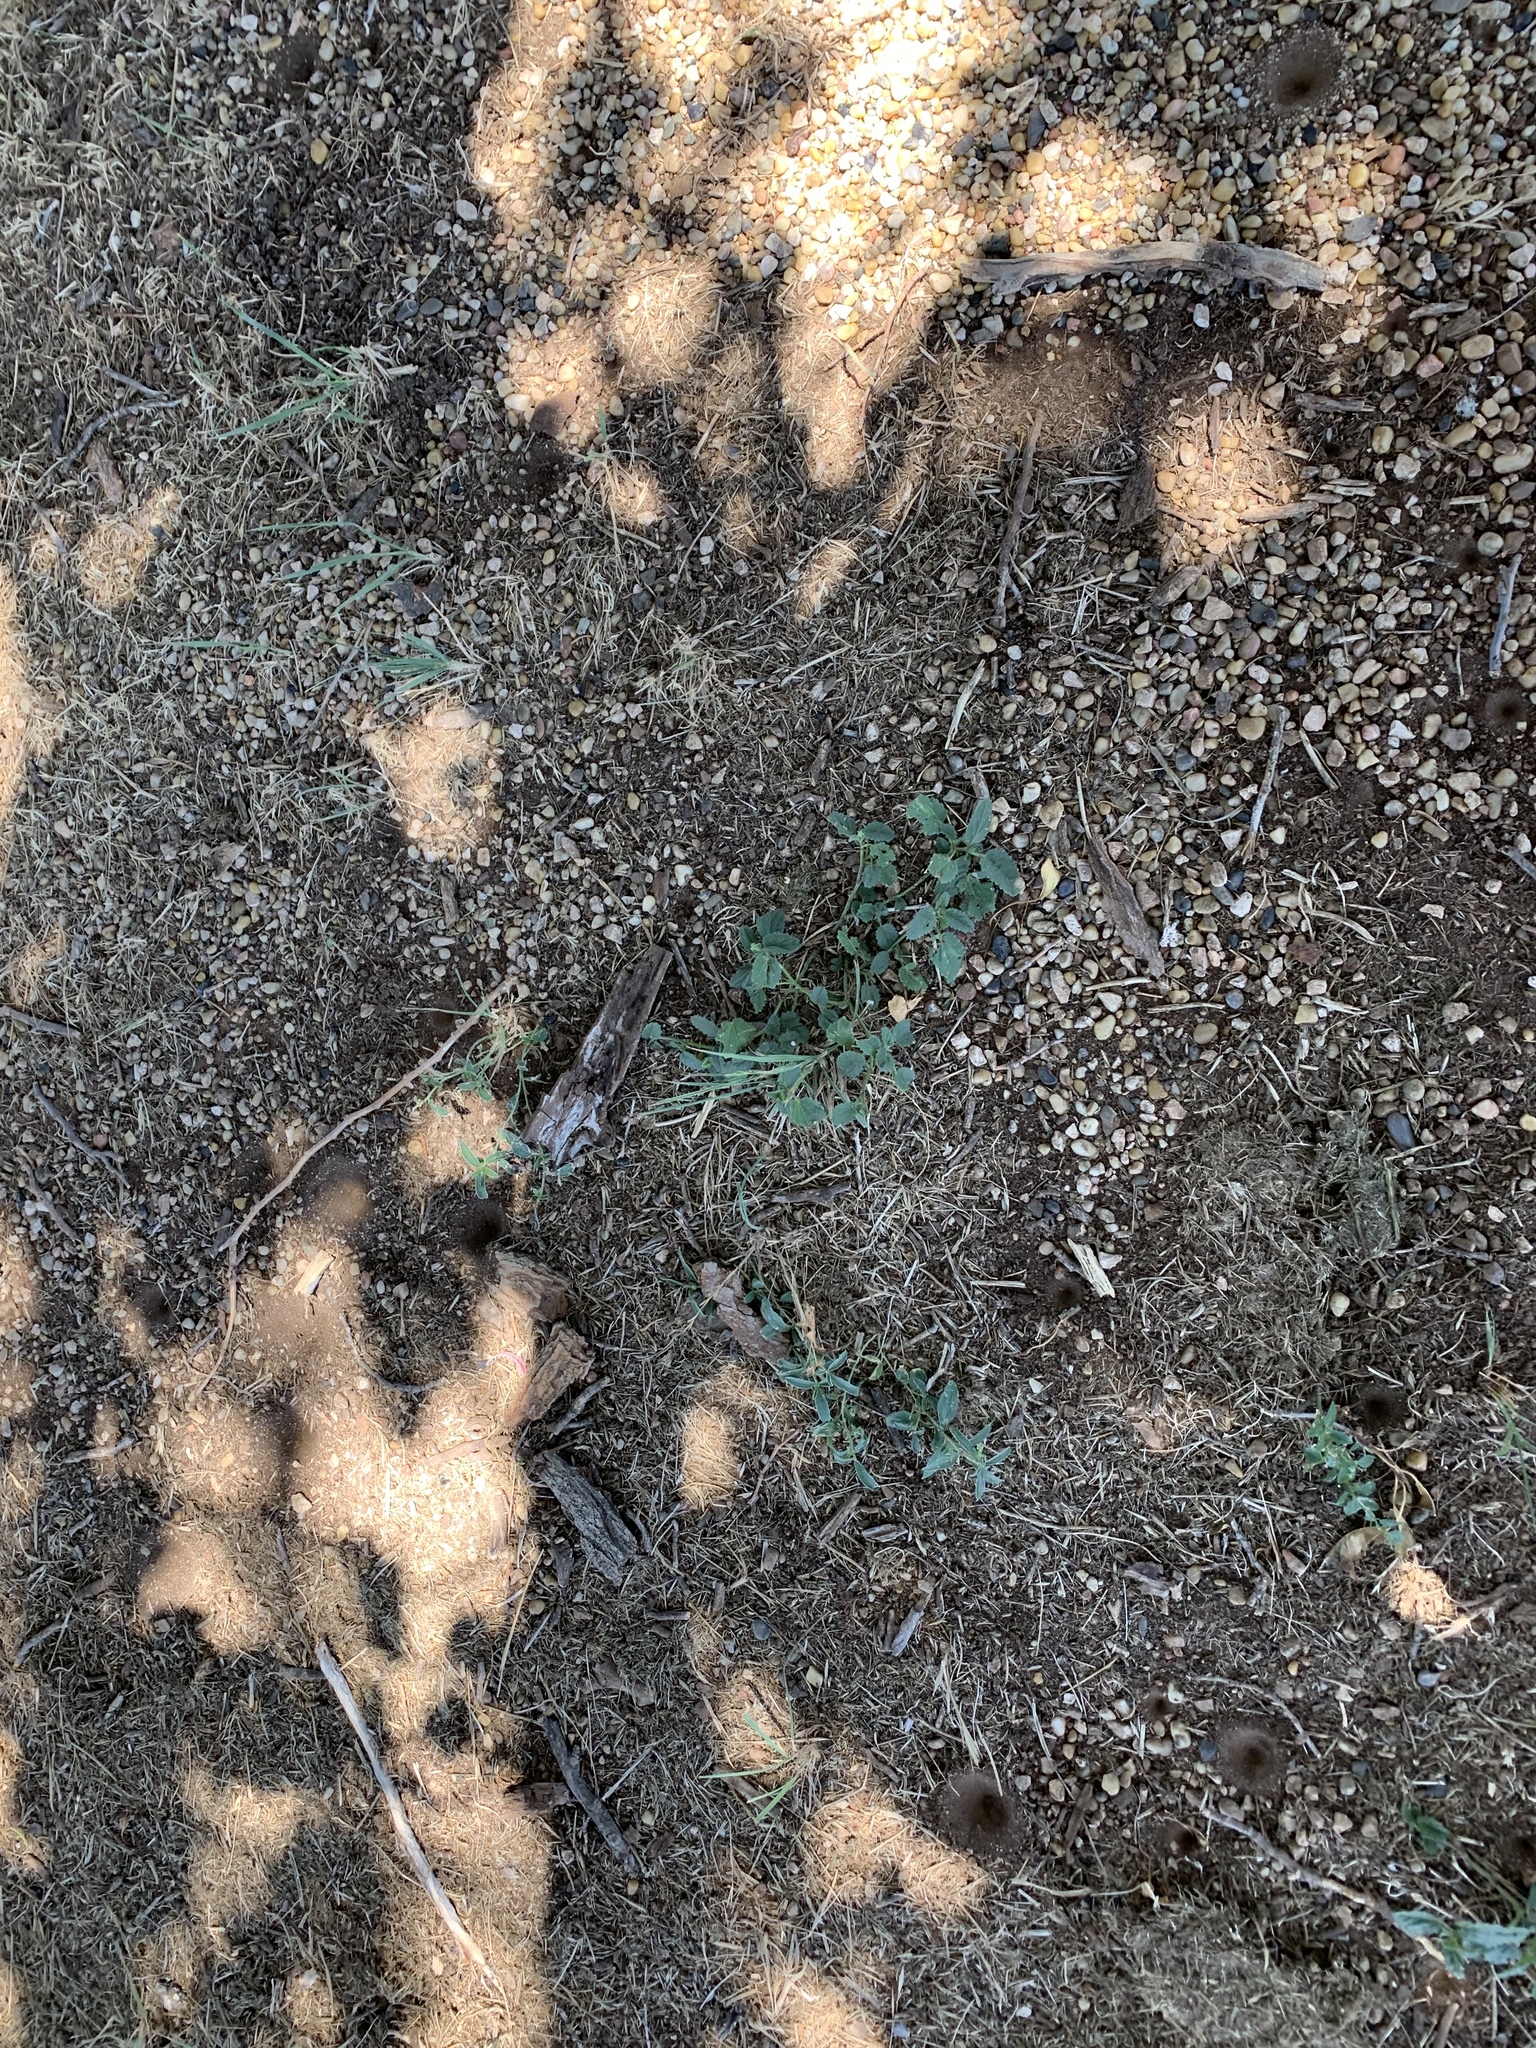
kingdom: Plantae
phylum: Tracheophyta
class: Magnoliopsida
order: Malvales
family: Malvaceae
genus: Rhynchosida
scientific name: Rhynchosida physocalyx
